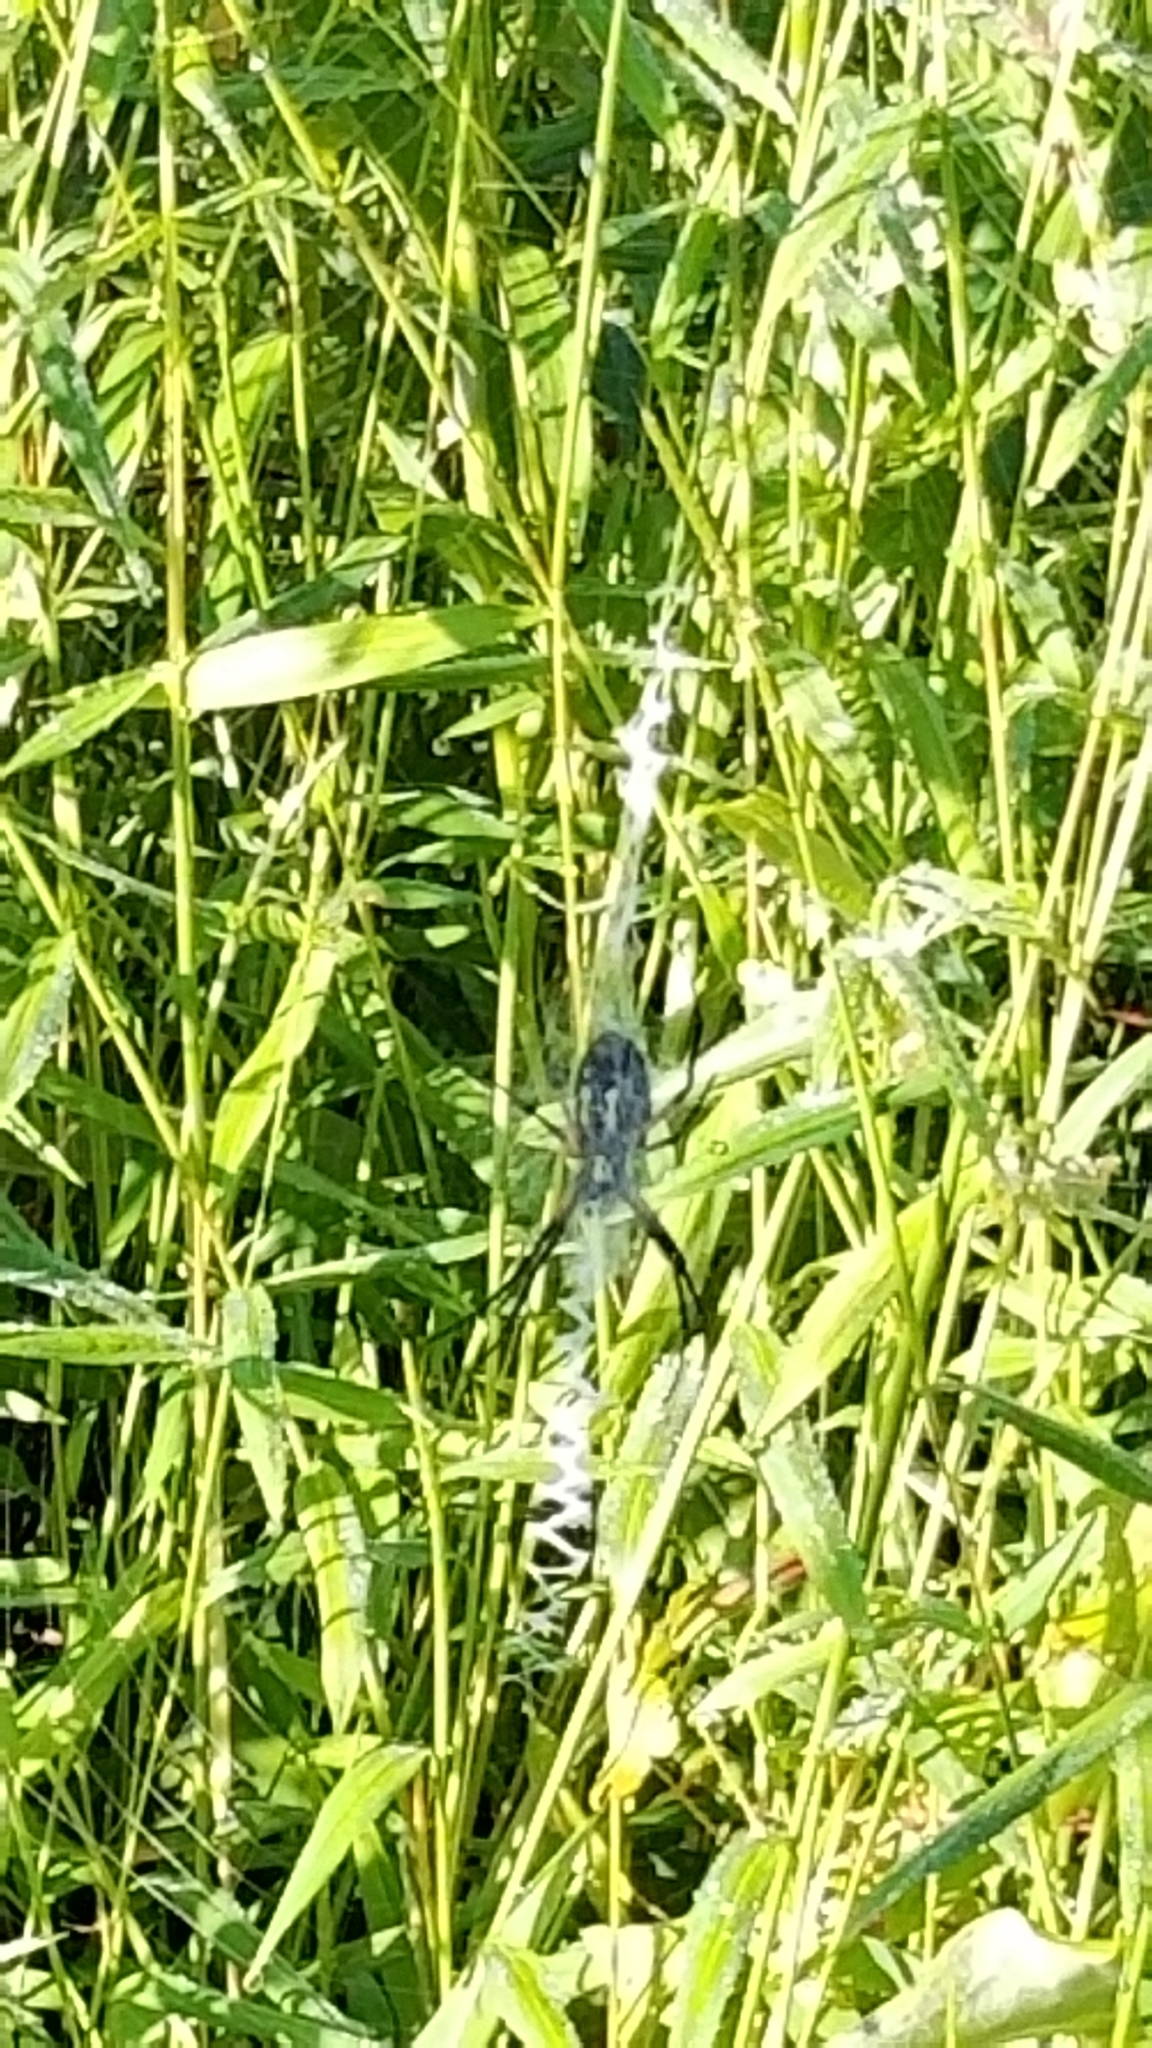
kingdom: Animalia
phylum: Arthropoda
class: Arachnida
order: Araneae
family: Araneidae
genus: Argiope
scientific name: Argiope aurantia
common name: Orb weavers
